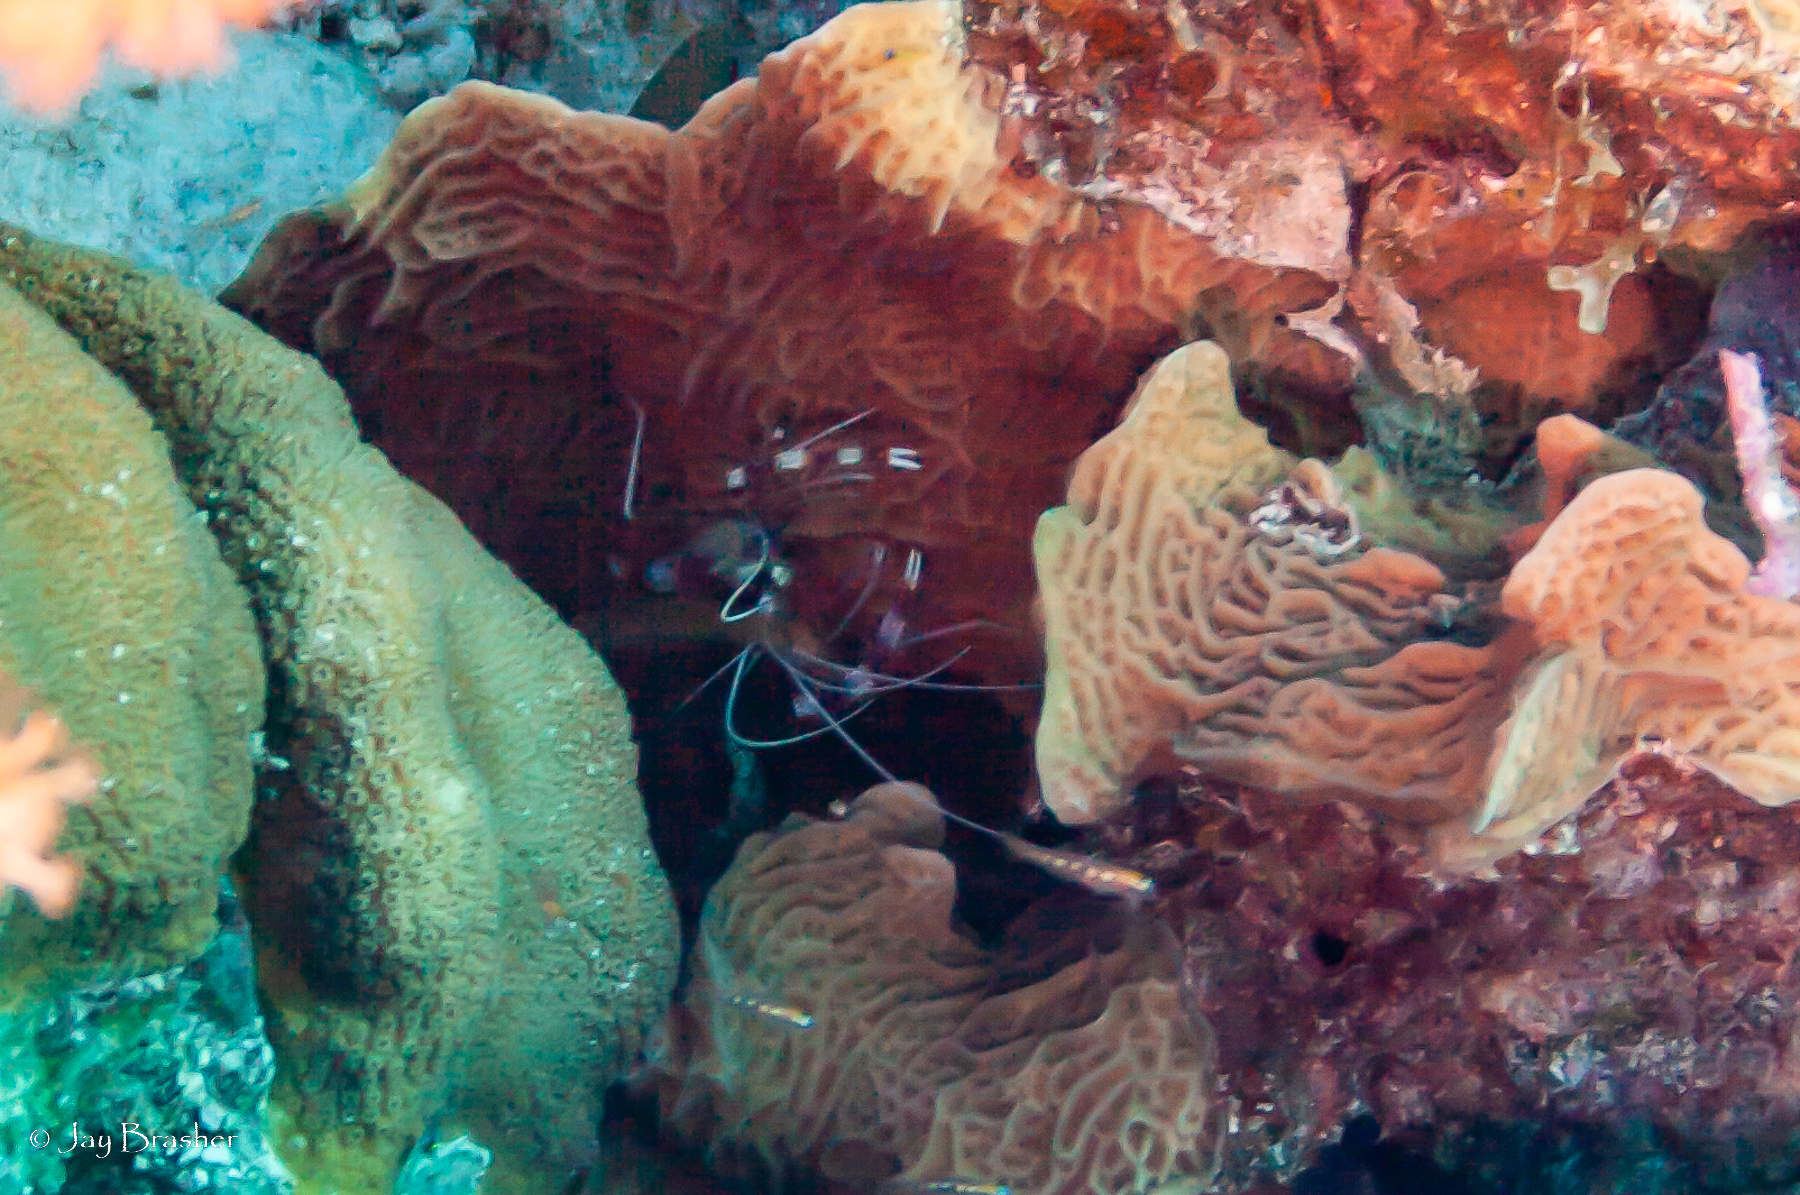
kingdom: Animalia
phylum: Cnidaria
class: Anthozoa
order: Scleractinia
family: Agariciidae
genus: Agaricia
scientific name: Agaricia agaricites
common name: Lettuce coral
